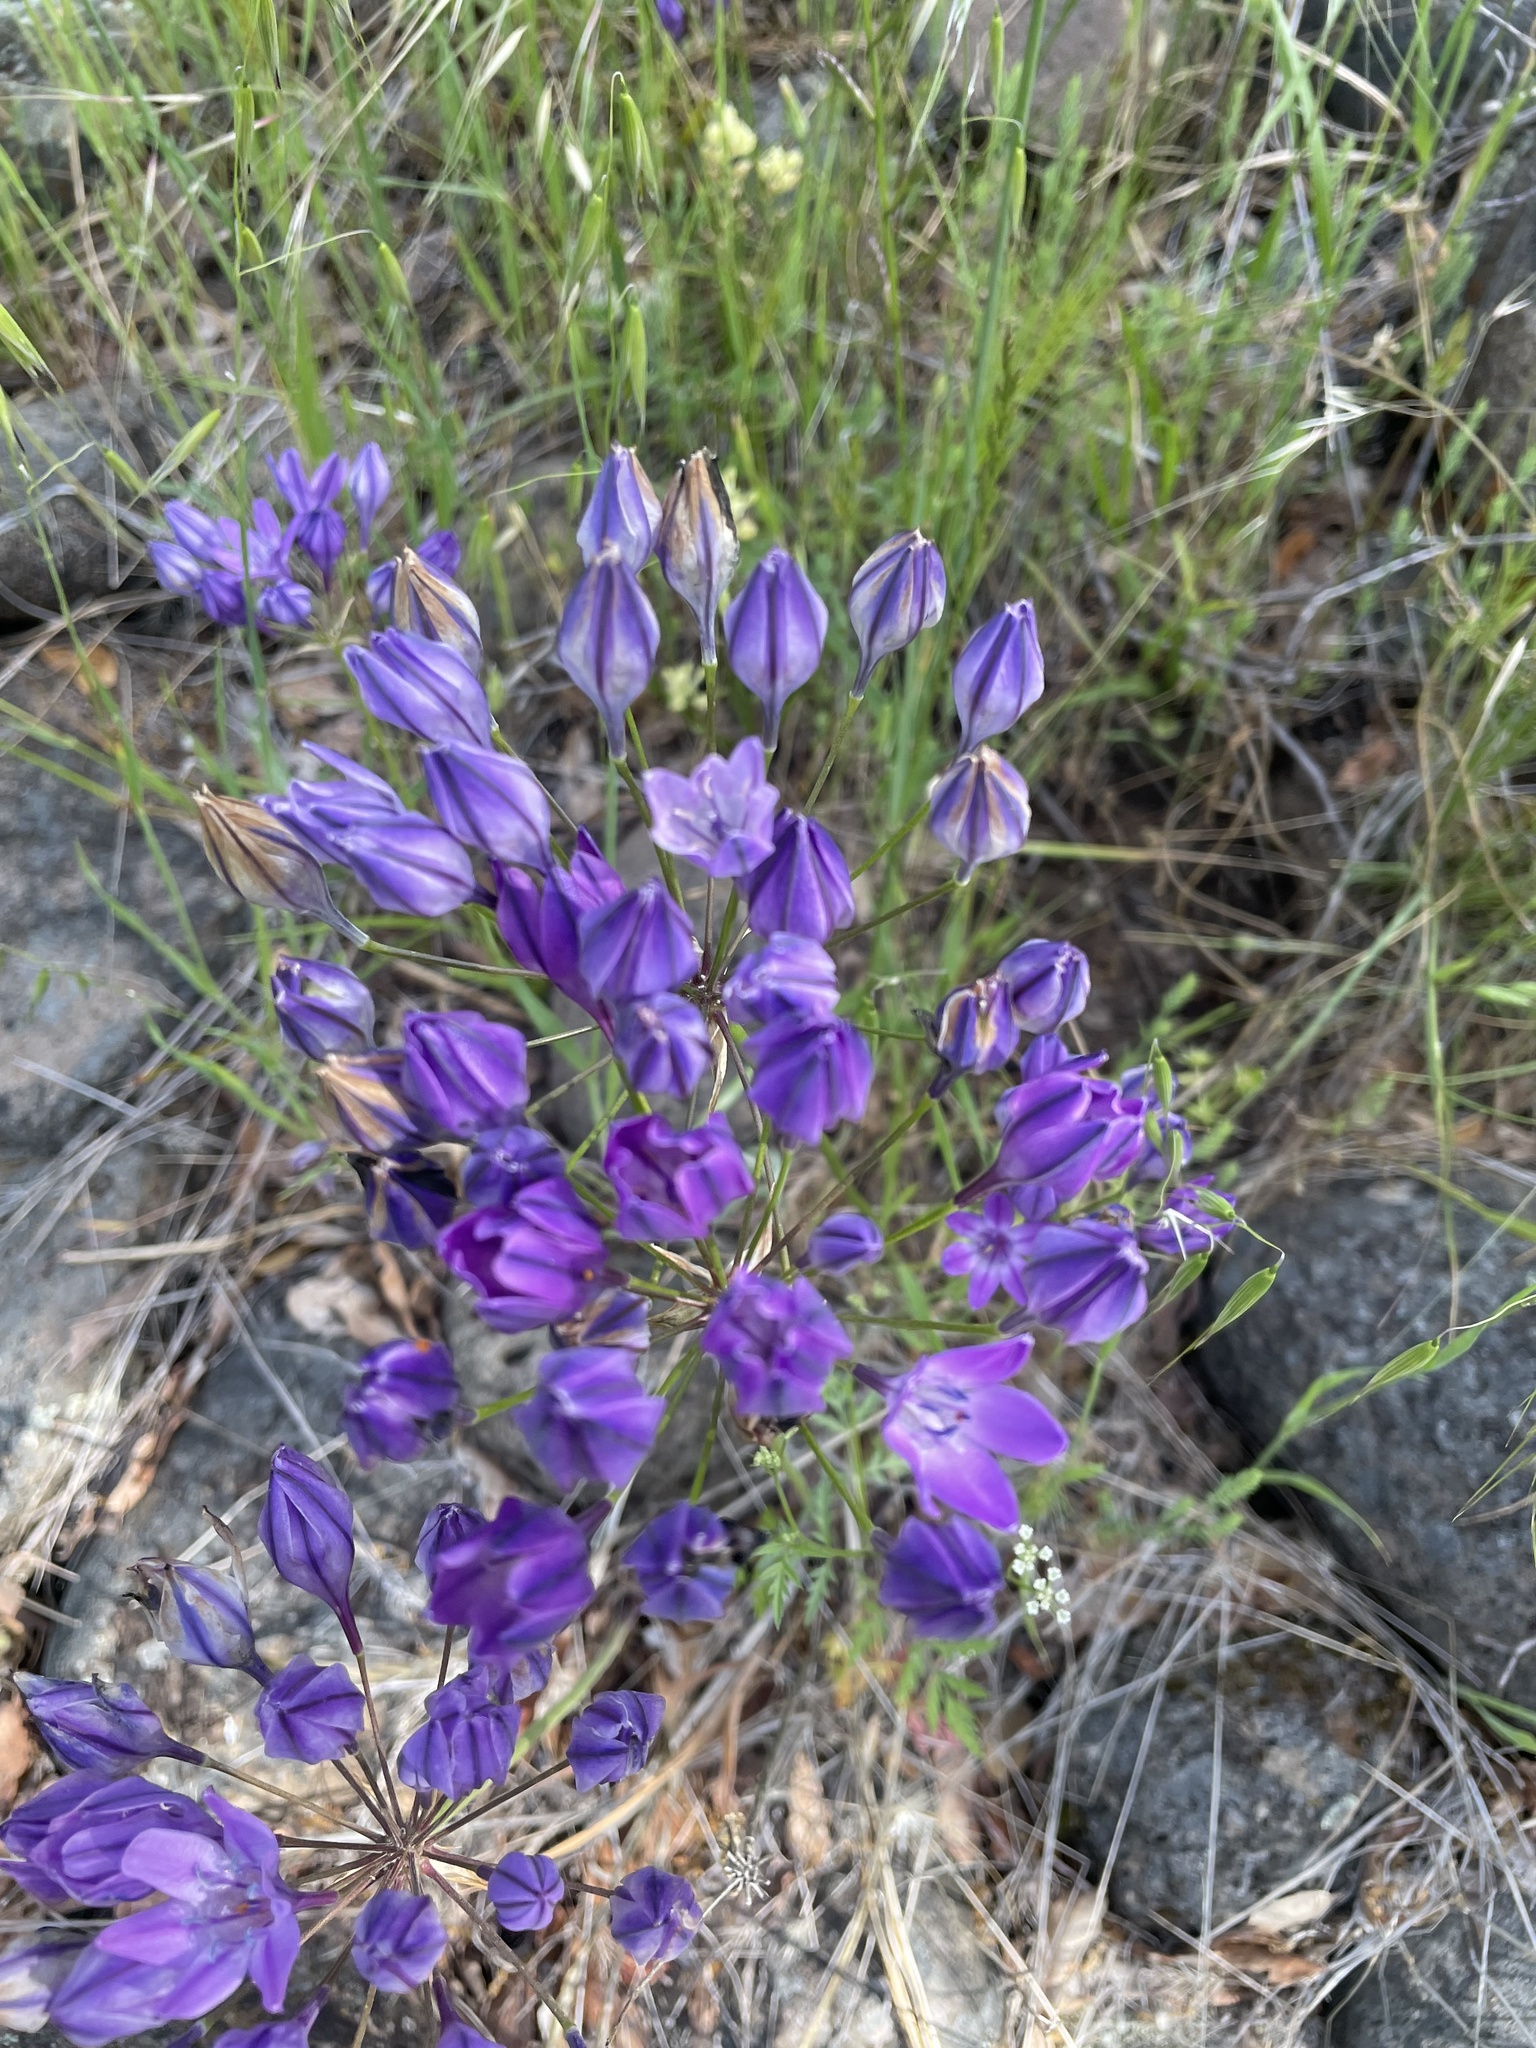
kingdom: Plantae
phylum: Tracheophyta
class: Liliopsida
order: Asparagales
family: Asparagaceae
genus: Triteleia
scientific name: Triteleia laxa
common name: Triplet-lily
